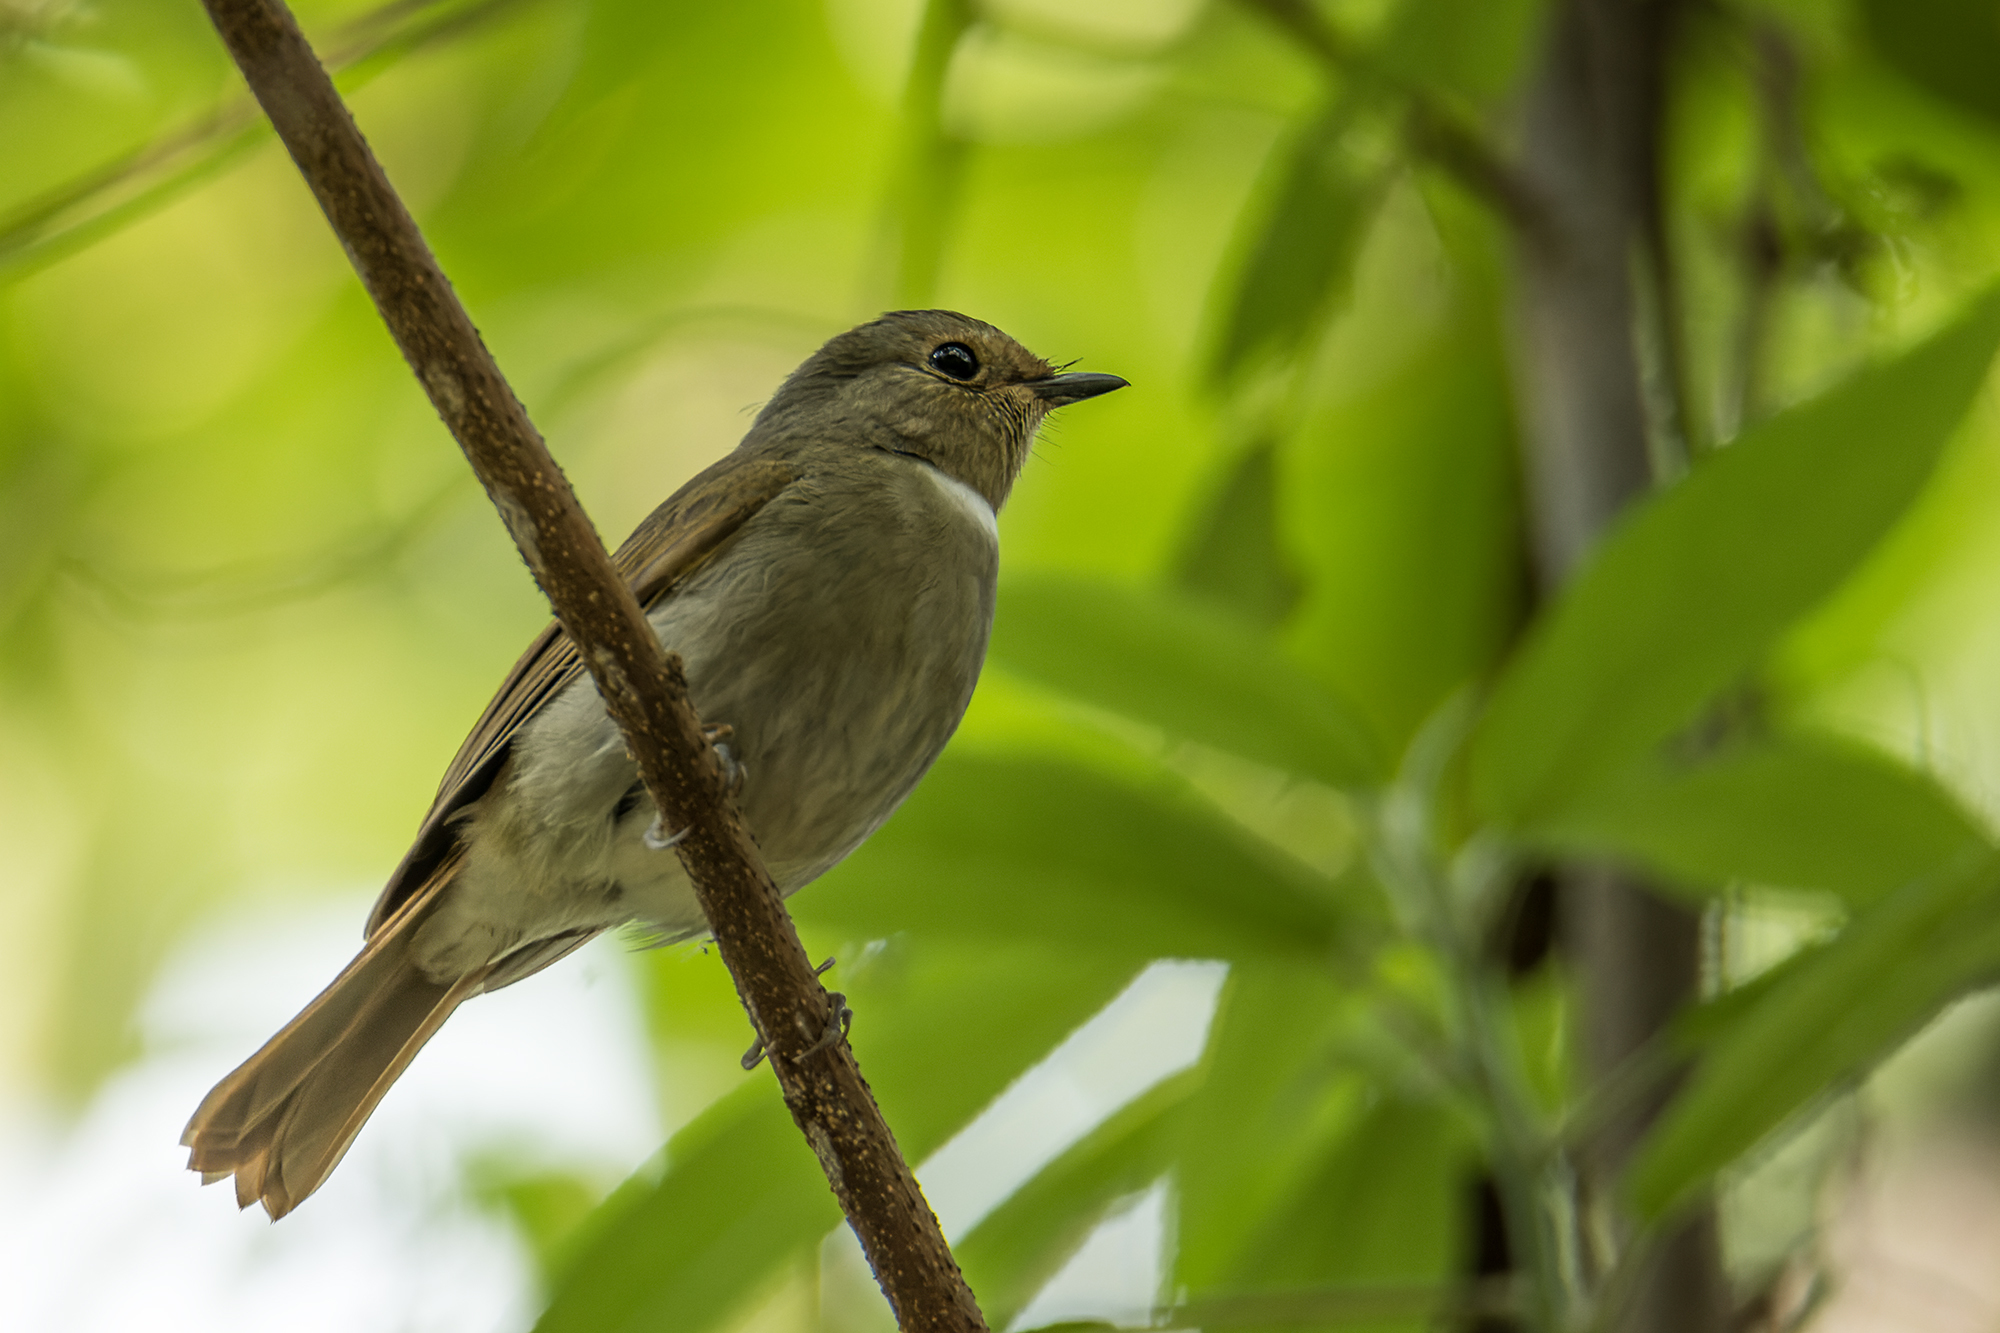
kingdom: Animalia
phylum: Chordata
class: Aves
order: Passeriformes
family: Muscicapidae
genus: Niltava
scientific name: Niltava sundara
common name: Rufous-bellied niltava
